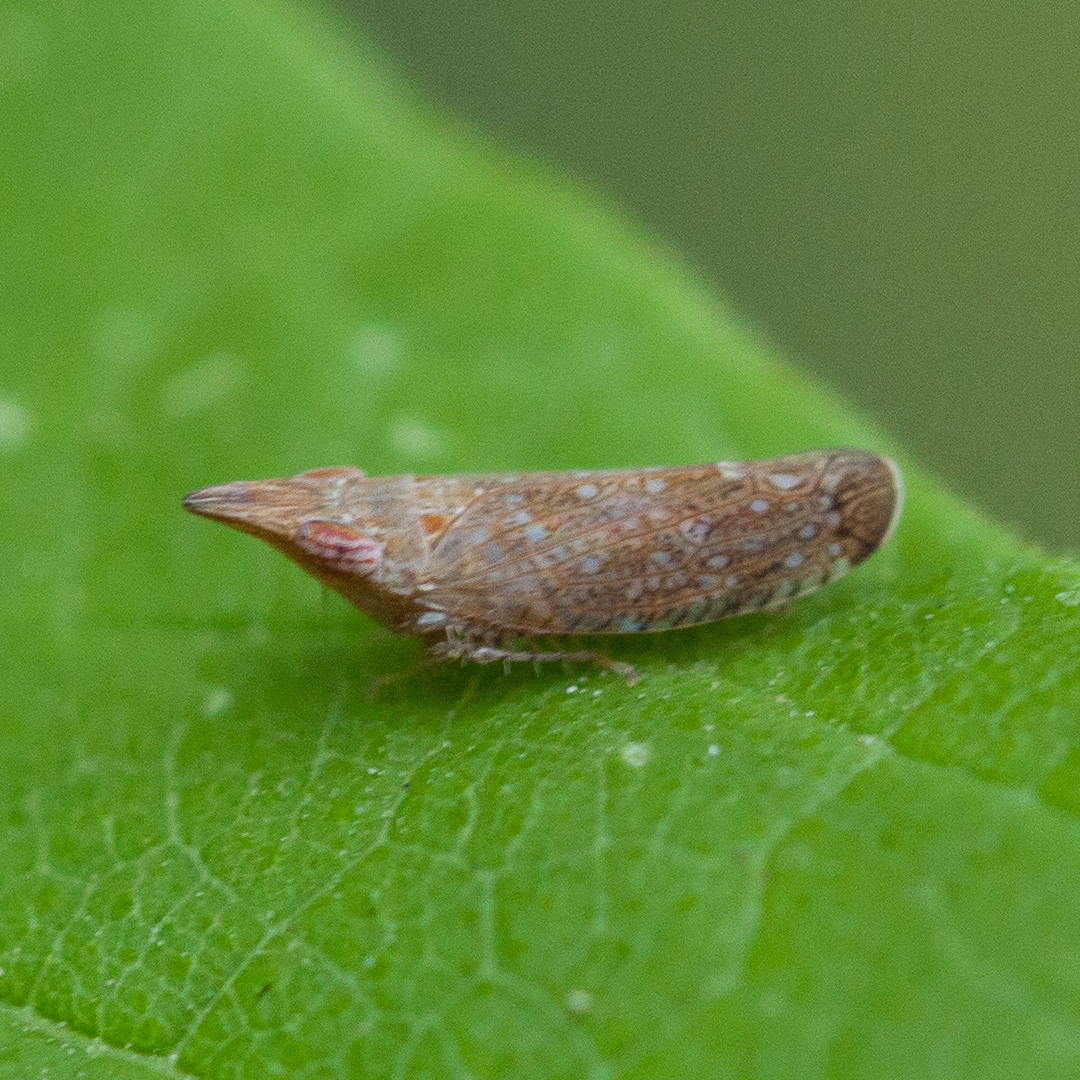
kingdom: Animalia
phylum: Arthropoda
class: Insecta
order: Hemiptera
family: Cicadellidae
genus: Scaphytopius
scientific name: Scaphytopius latus
